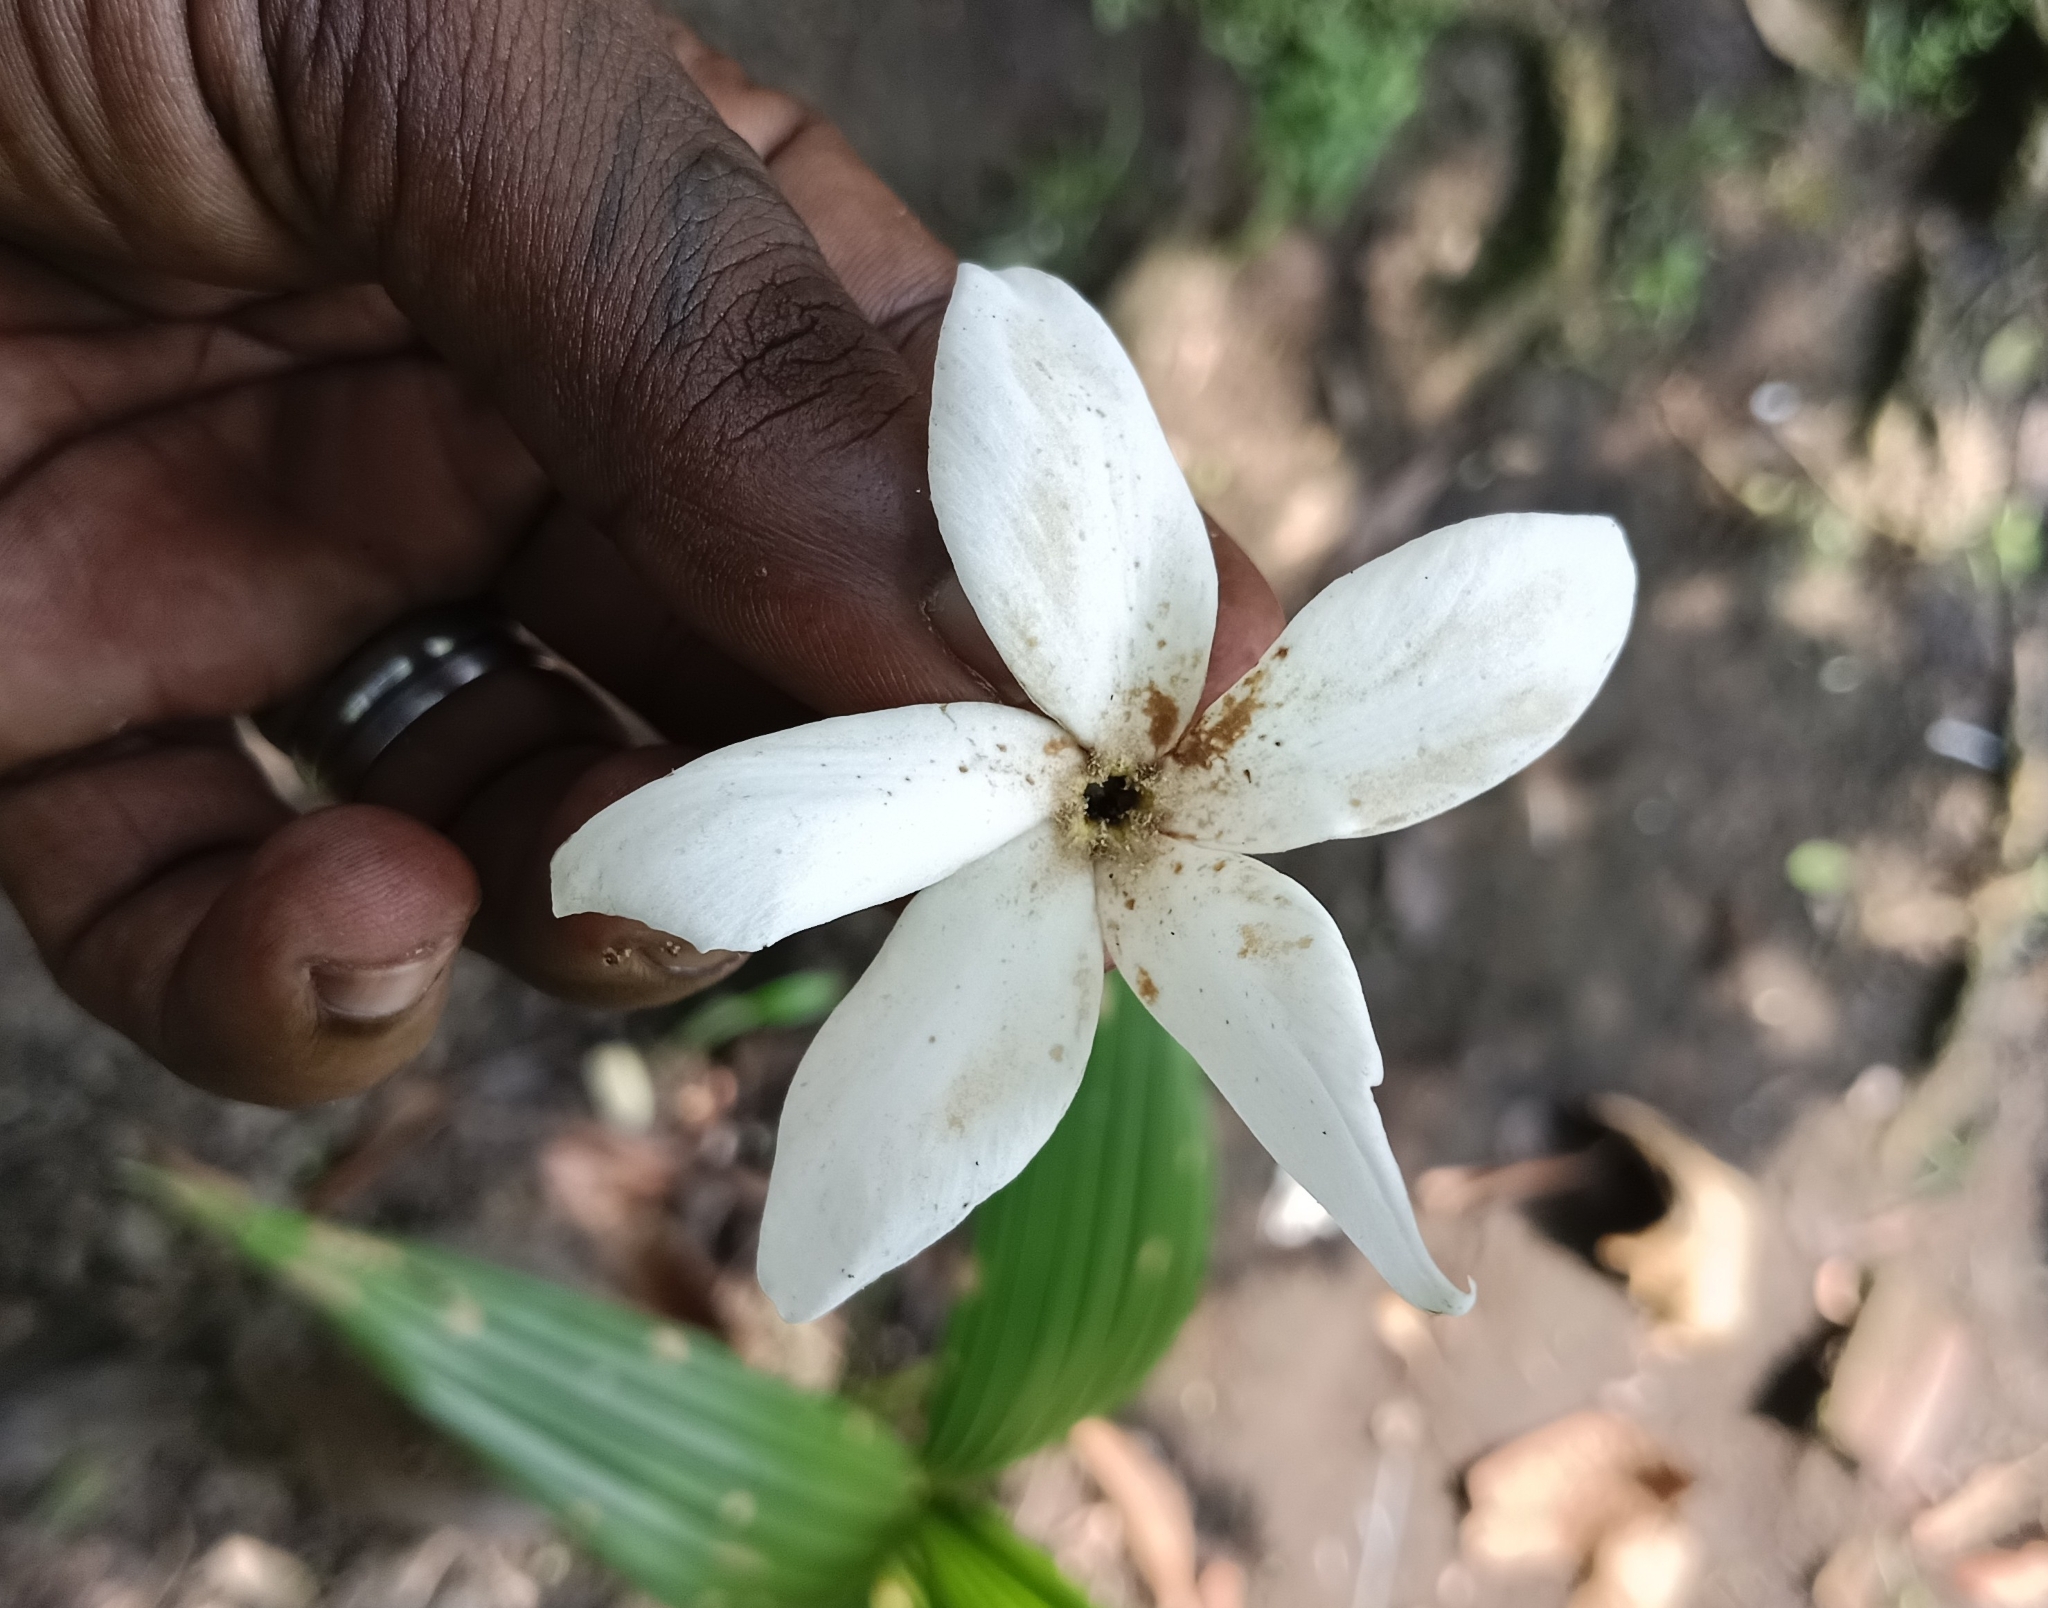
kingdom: Plantae
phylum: Tracheophyta
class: Magnoliopsida
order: Gentianales
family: Apocynaceae
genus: Cerbera
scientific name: Cerbera odollam
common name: Pong-pong
